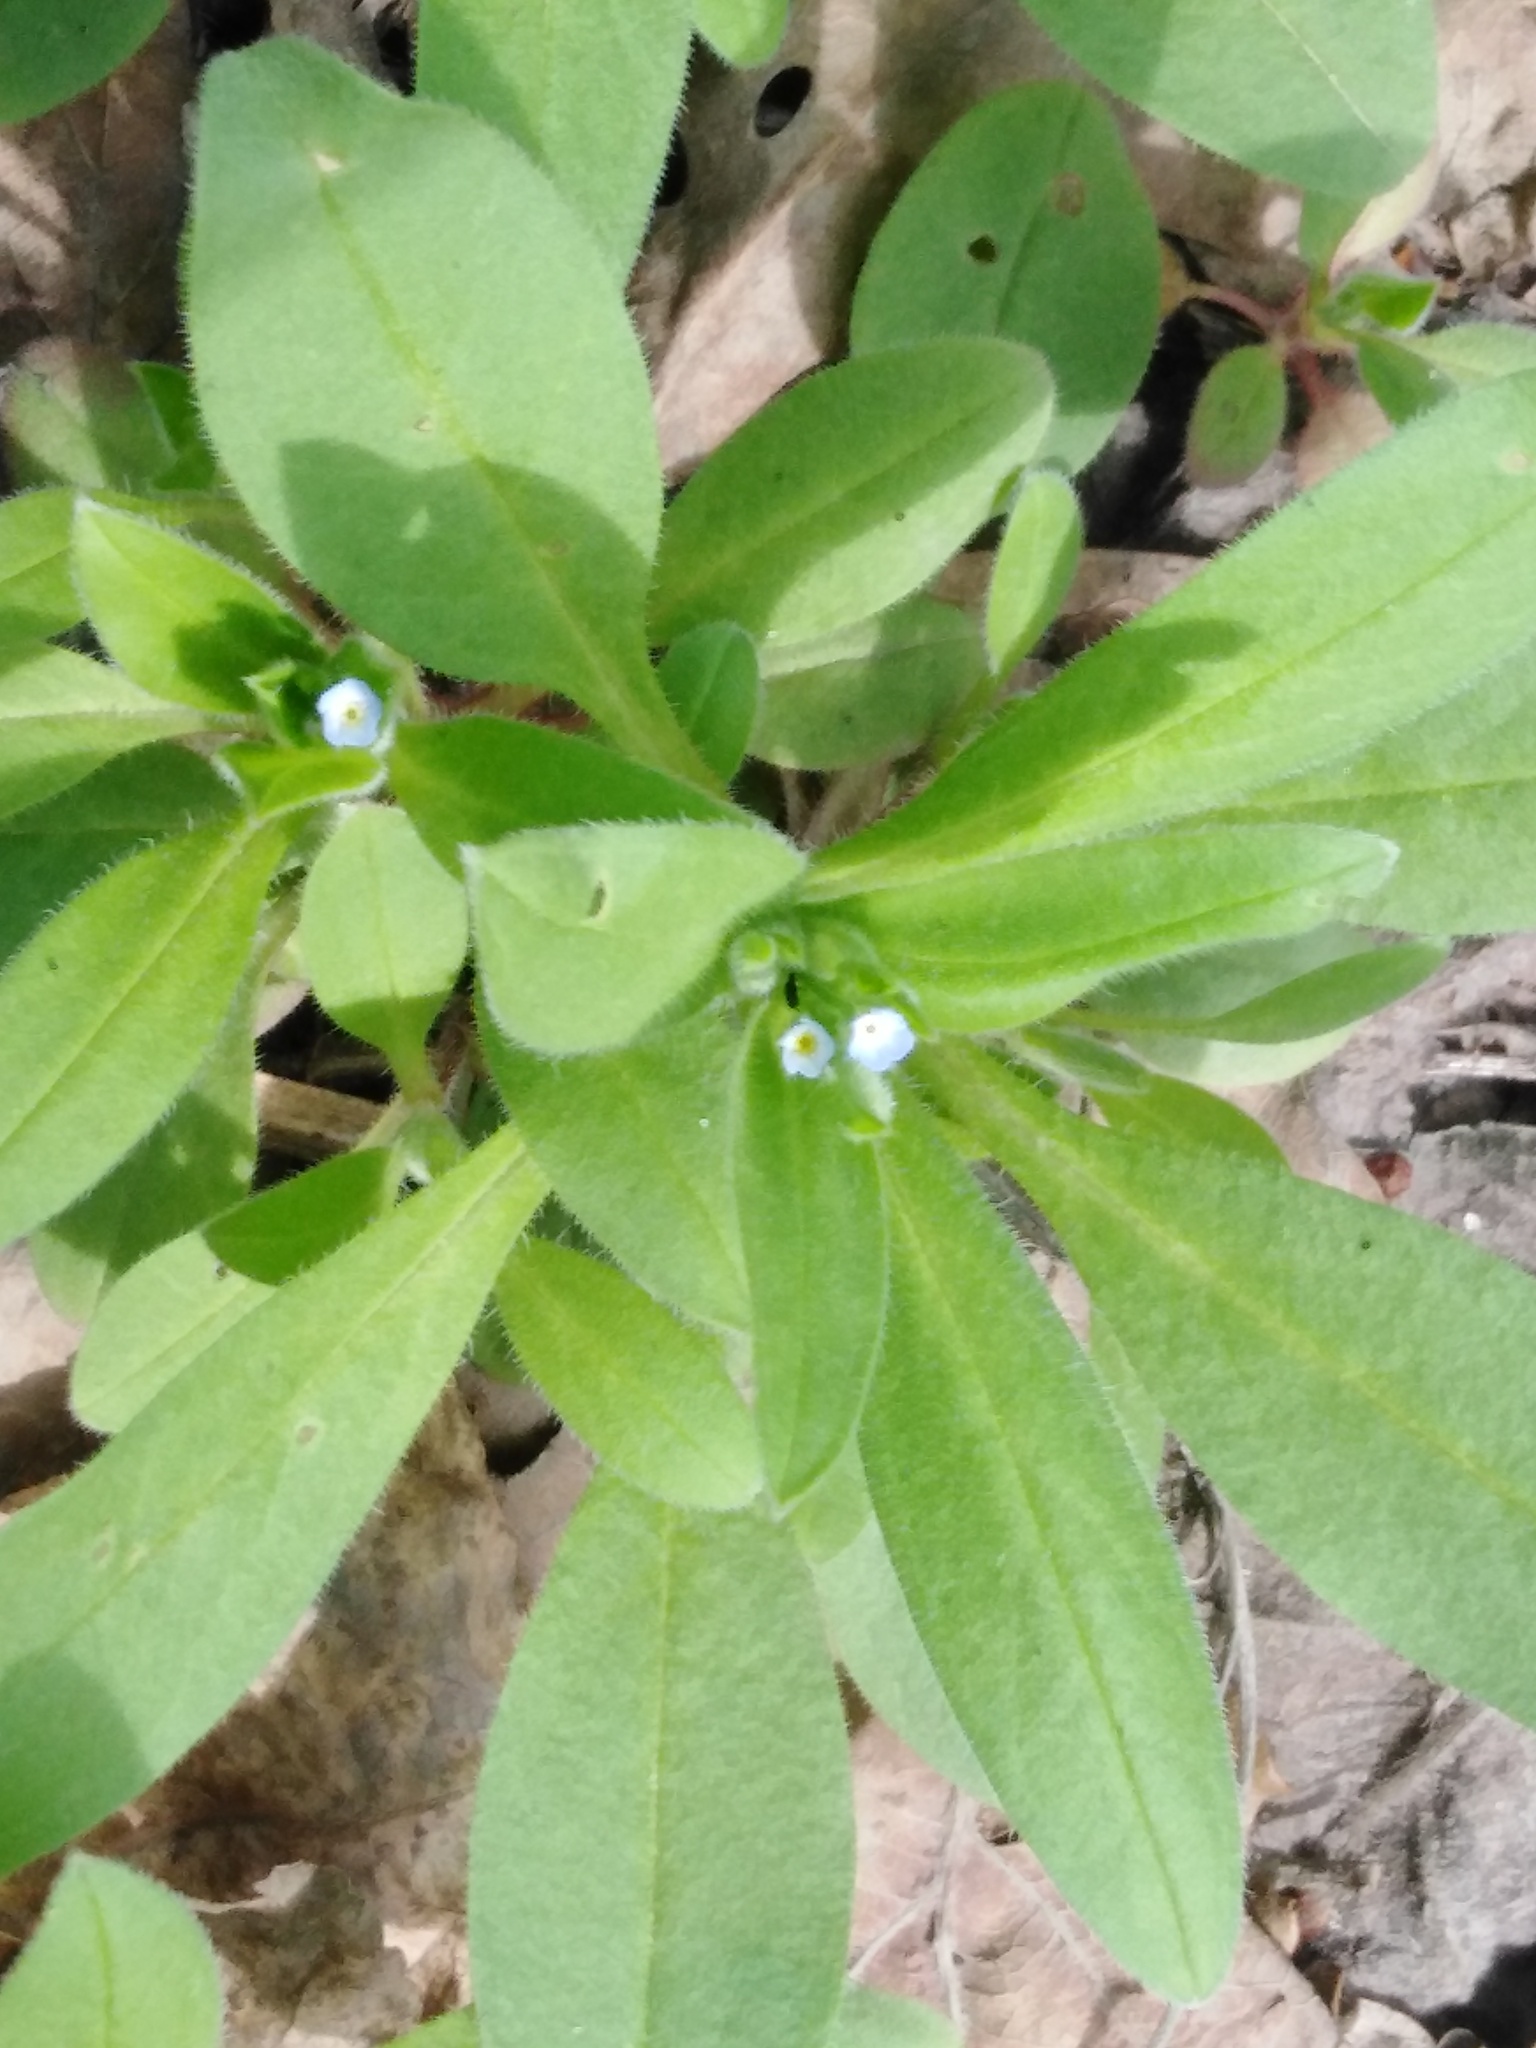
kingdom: Plantae
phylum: Tracheophyta
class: Magnoliopsida
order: Boraginales
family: Boraginaceae
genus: Myosotis
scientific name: Myosotis sparsiflora
